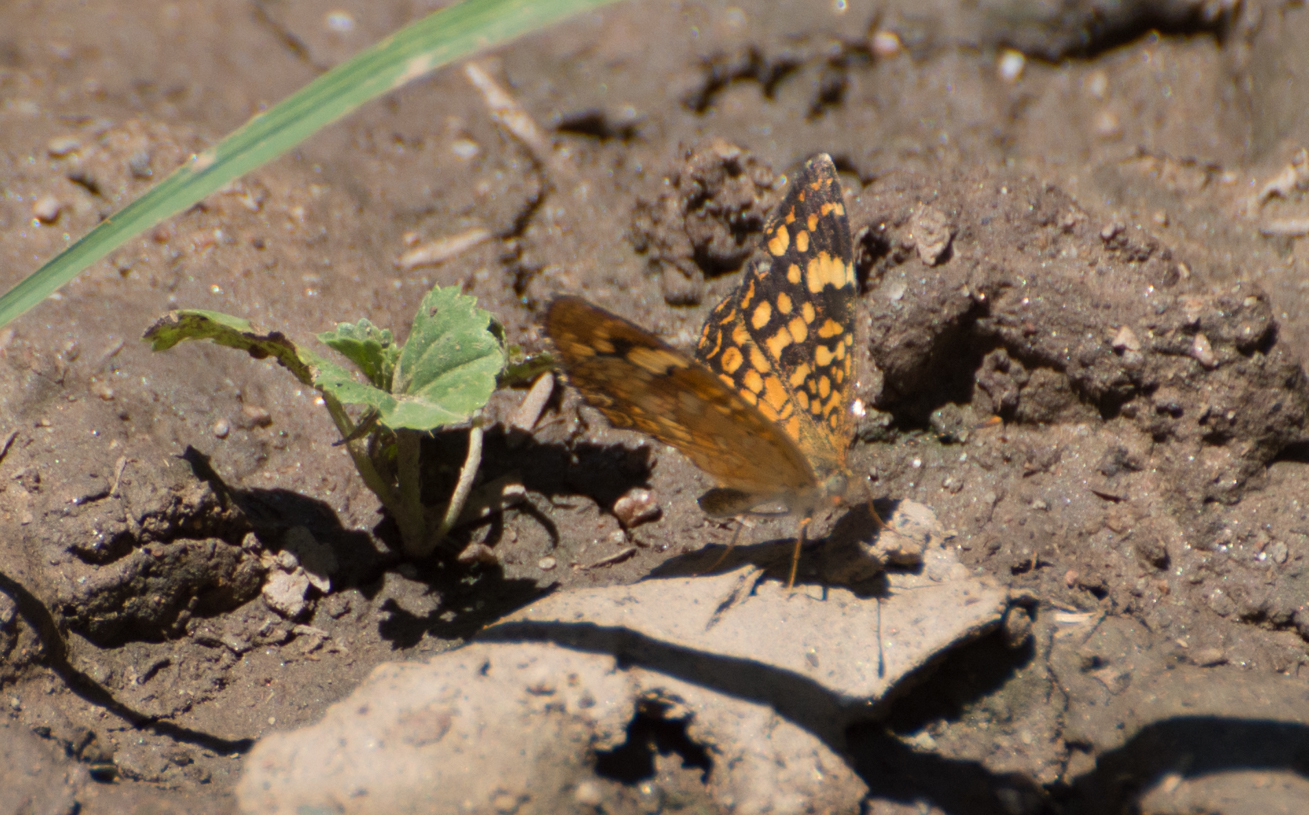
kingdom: Animalia
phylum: Arthropoda
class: Insecta
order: Lepidoptera
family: Nymphalidae
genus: Phystis
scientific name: Phystis simois
